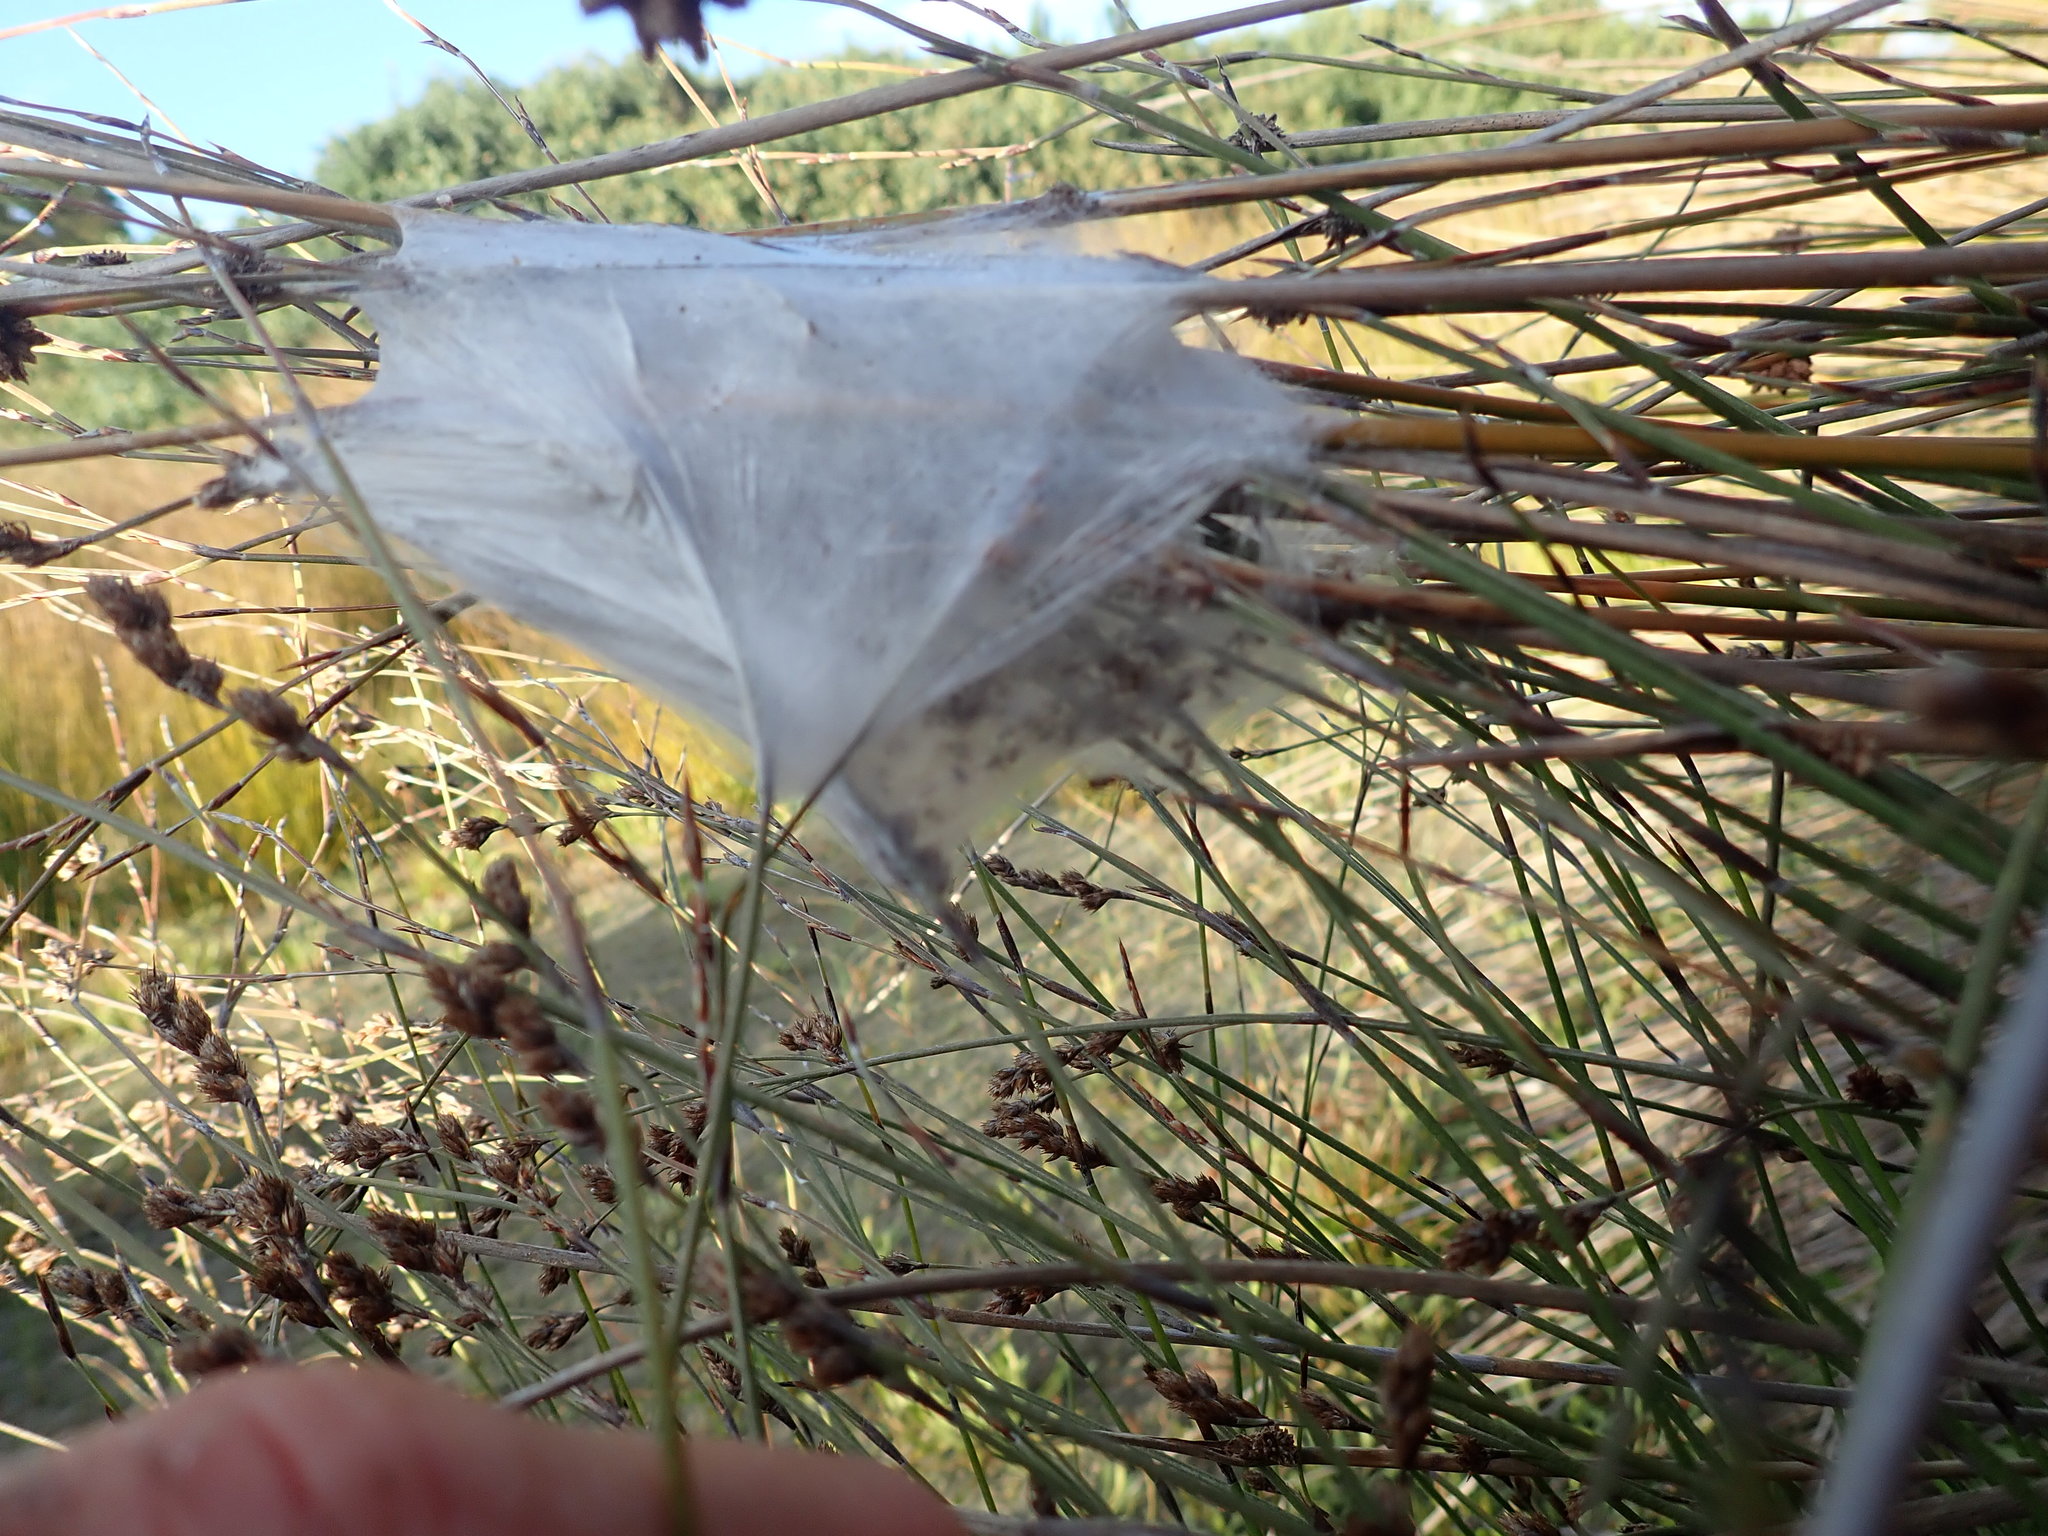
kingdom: Animalia
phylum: Arthropoda
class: Arachnida
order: Araneae
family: Pisauridae
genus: Dolomedes
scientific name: Dolomedes minor
